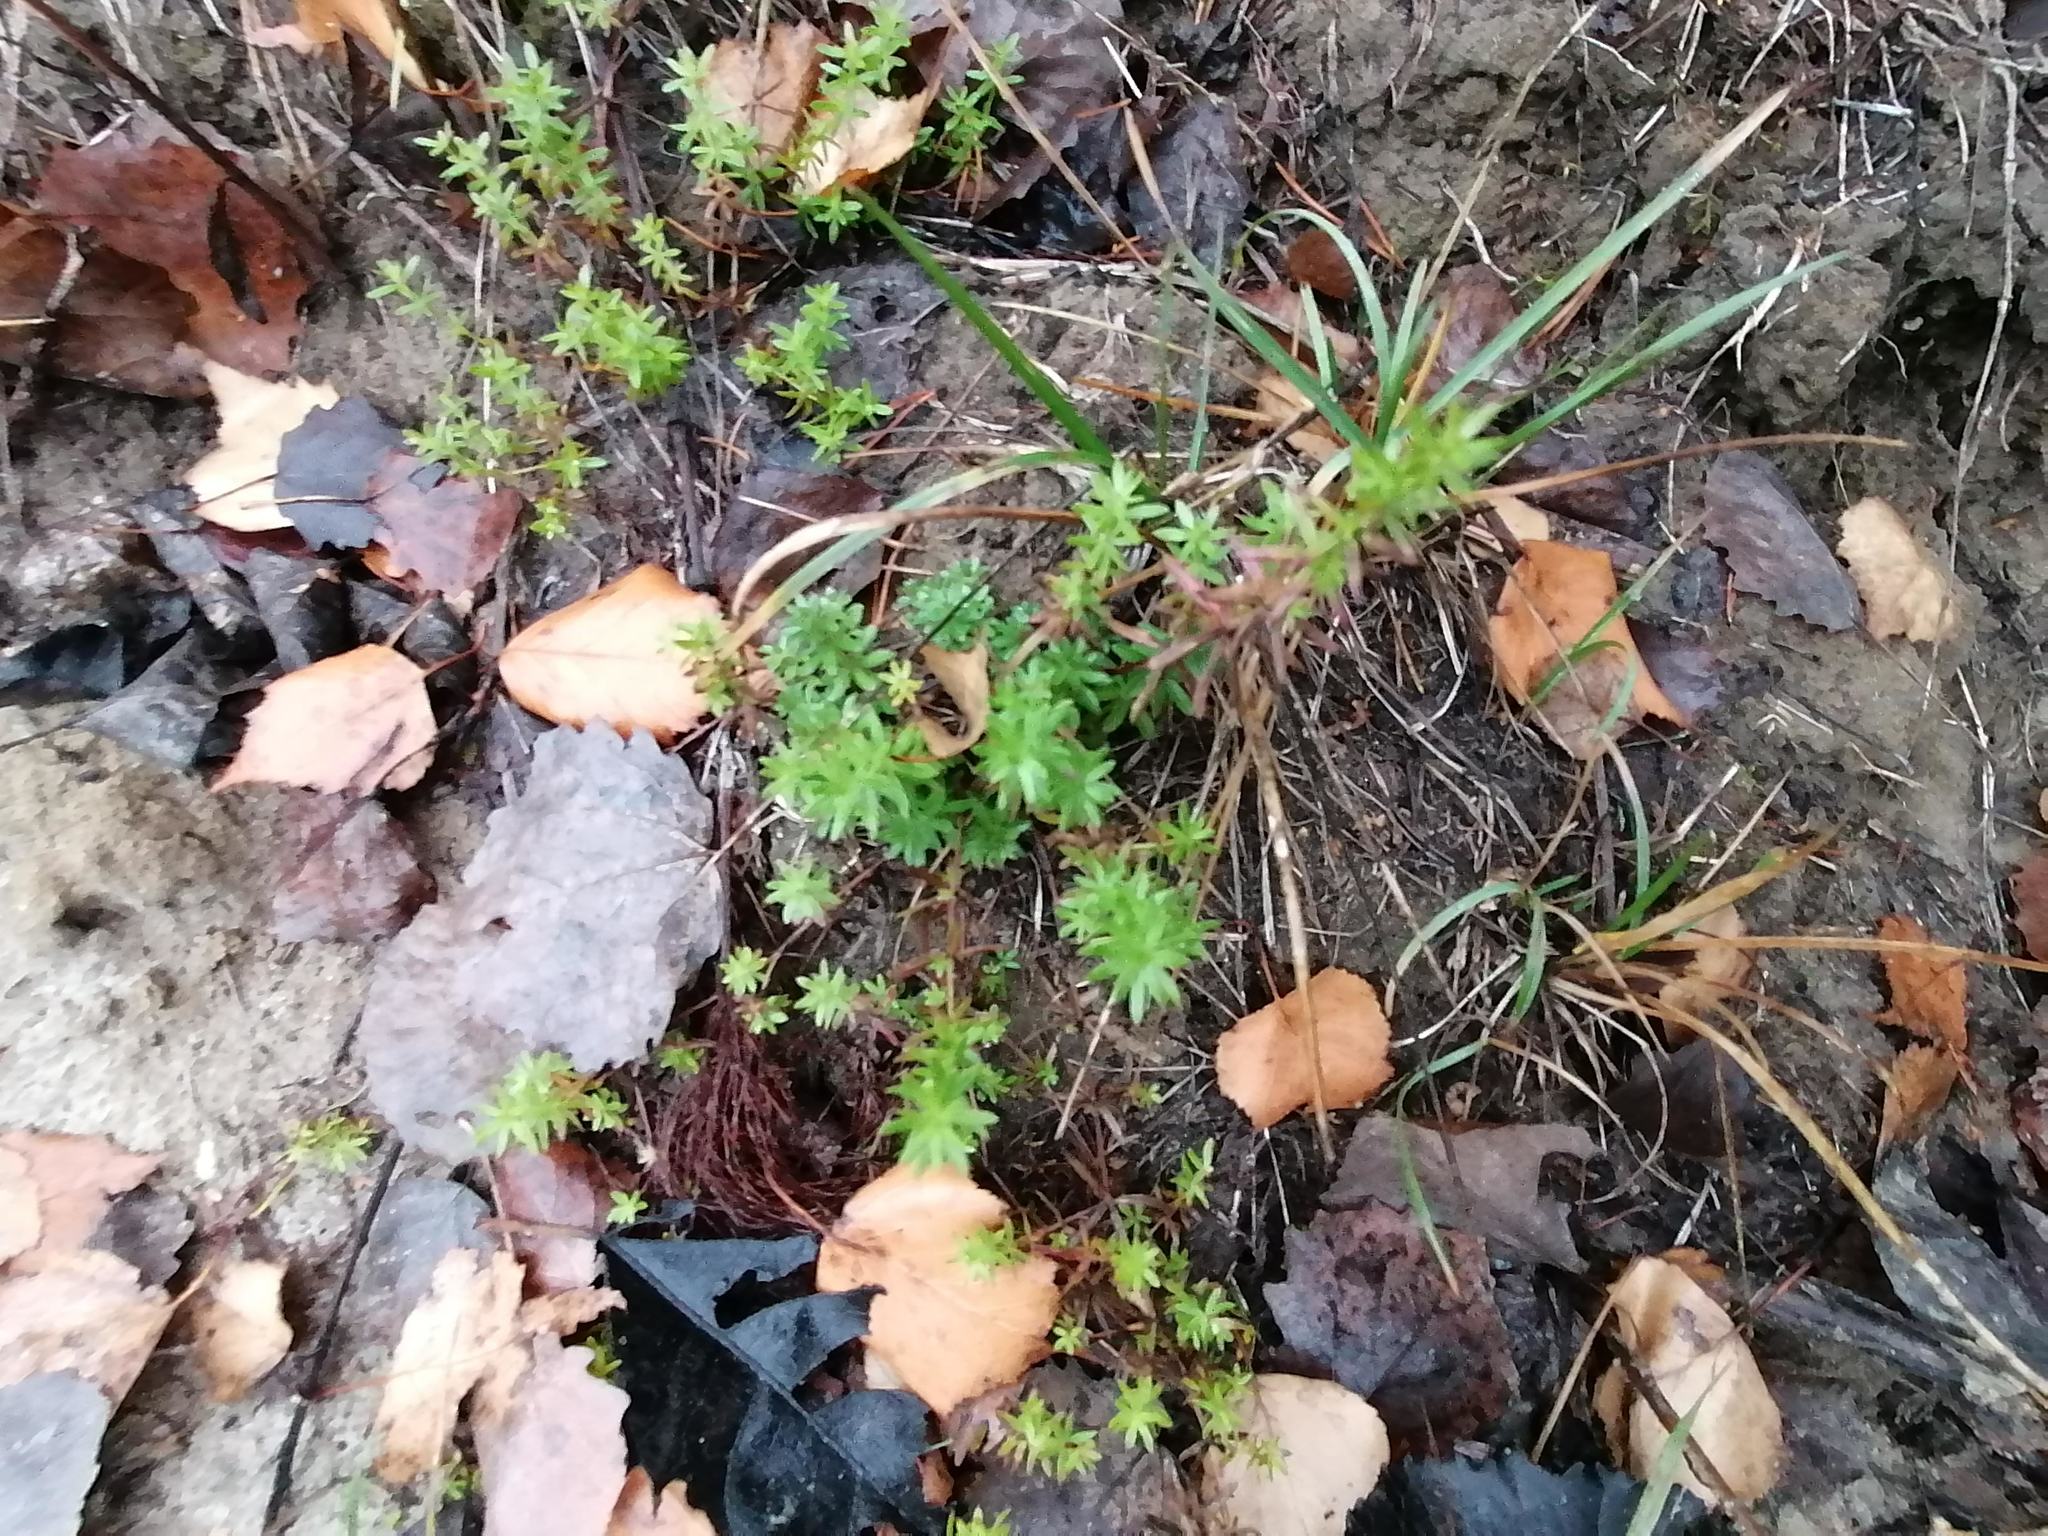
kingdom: Plantae
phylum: Tracheophyta
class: Magnoliopsida
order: Gentianales
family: Rubiaceae
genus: Galium
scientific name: Galium mollugo
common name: Hedge bedstraw
